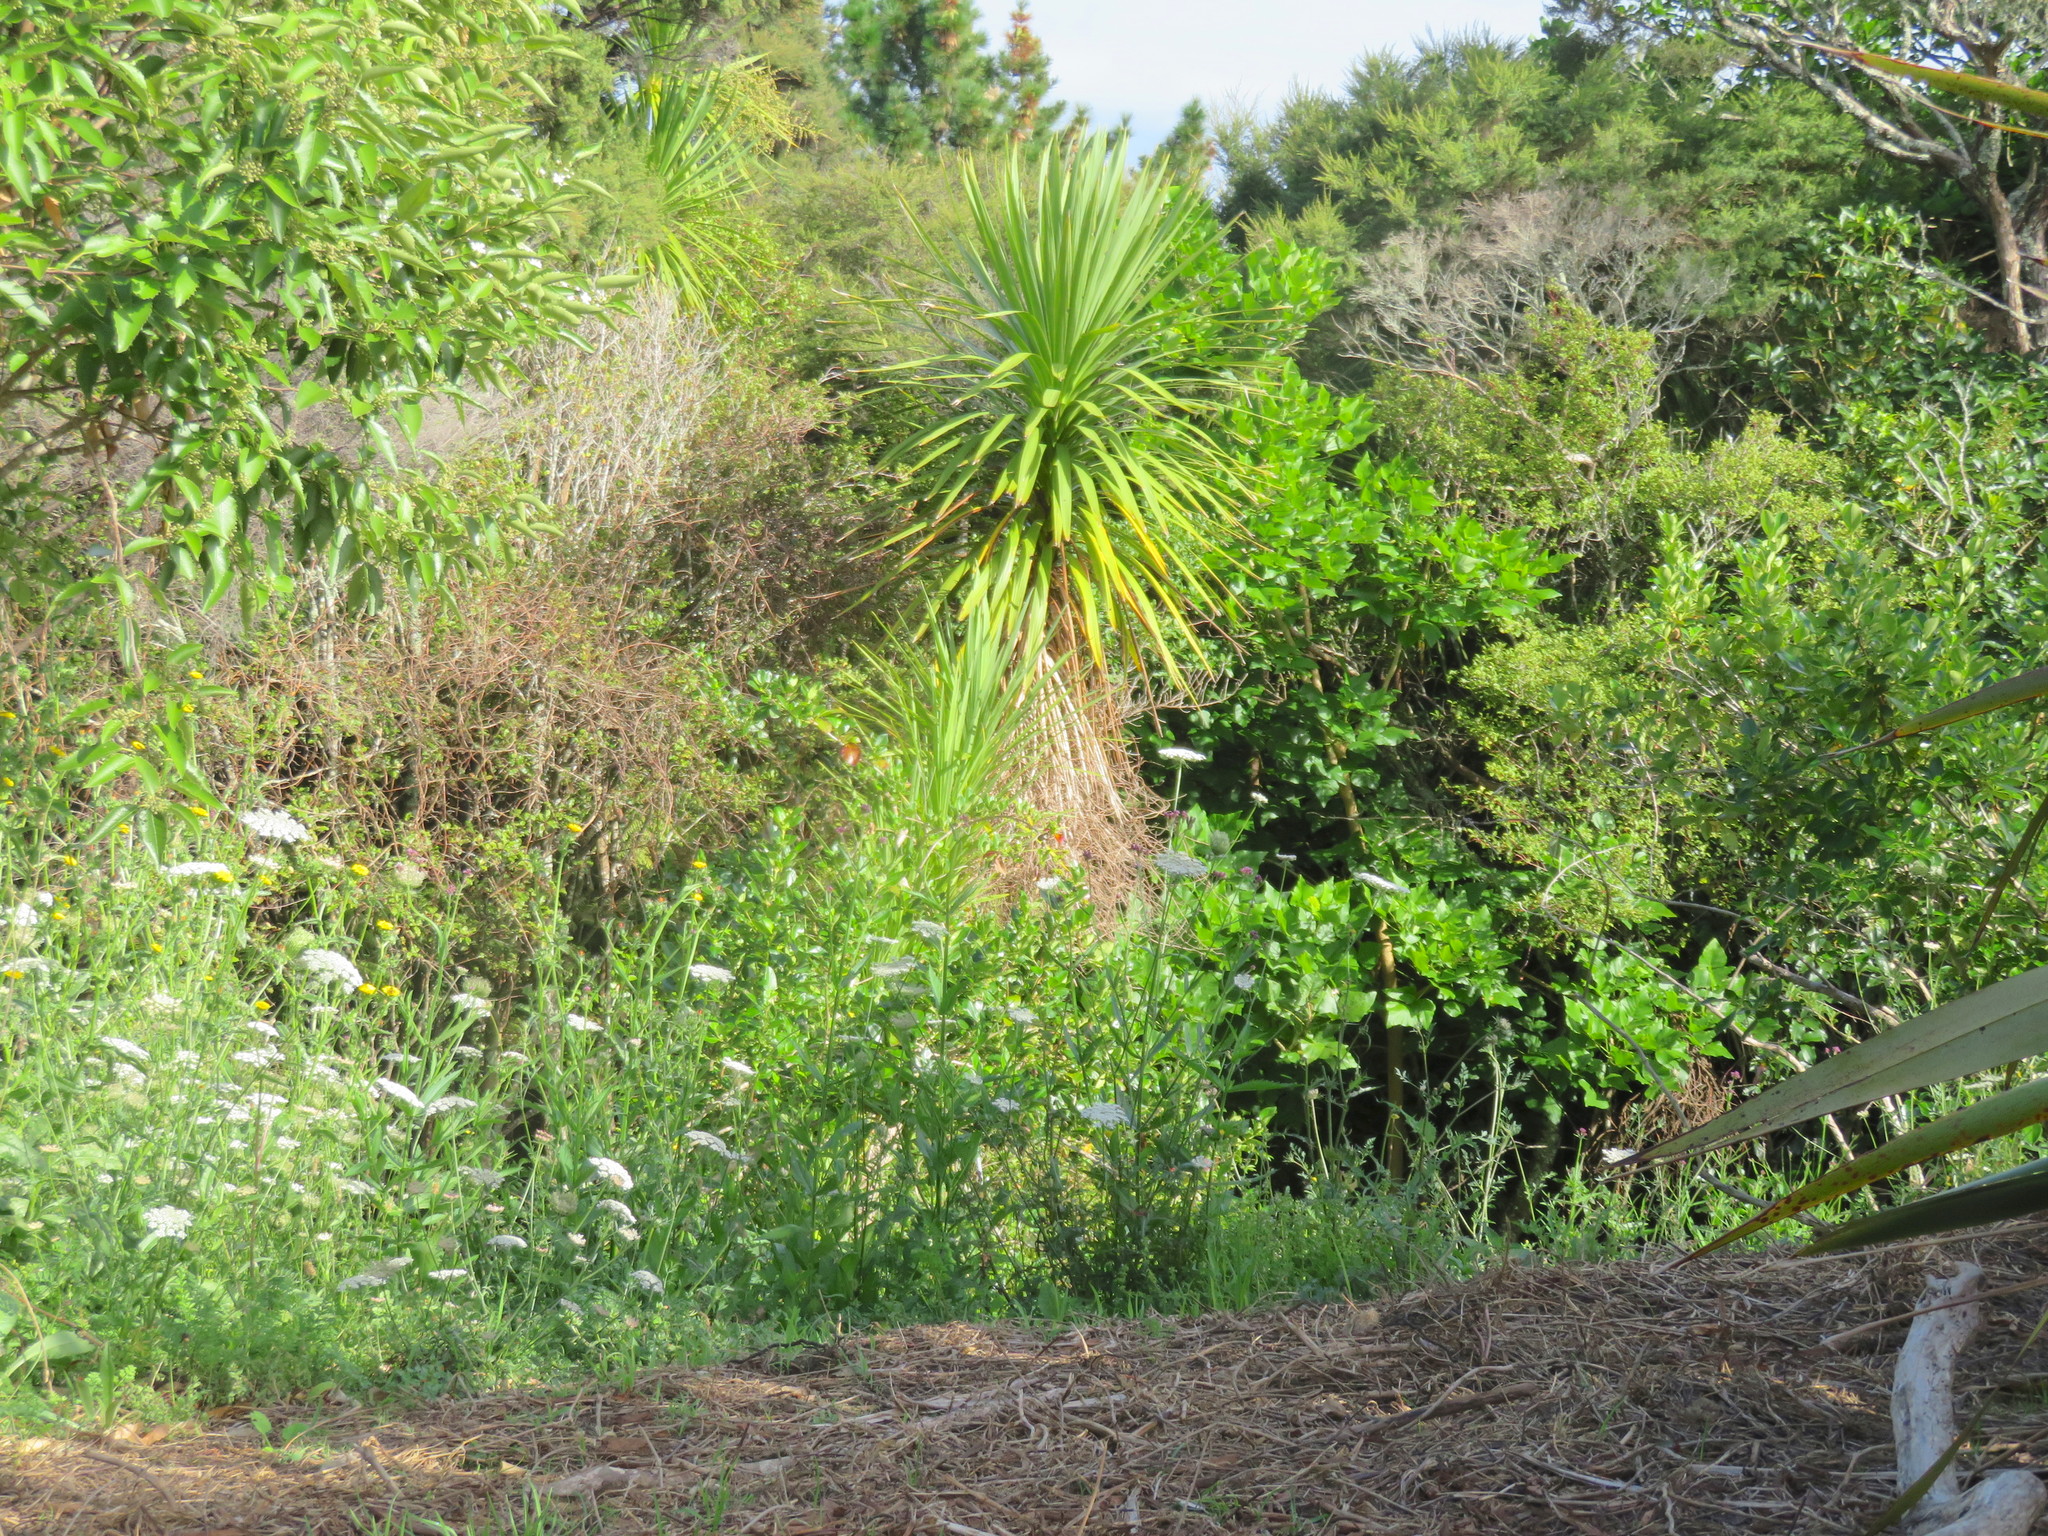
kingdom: Plantae
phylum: Tracheophyta
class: Liliopsida
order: Asparagales
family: Asparagaceae
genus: Cordyline
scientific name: Cordyline australis
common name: Cabbage-palm
